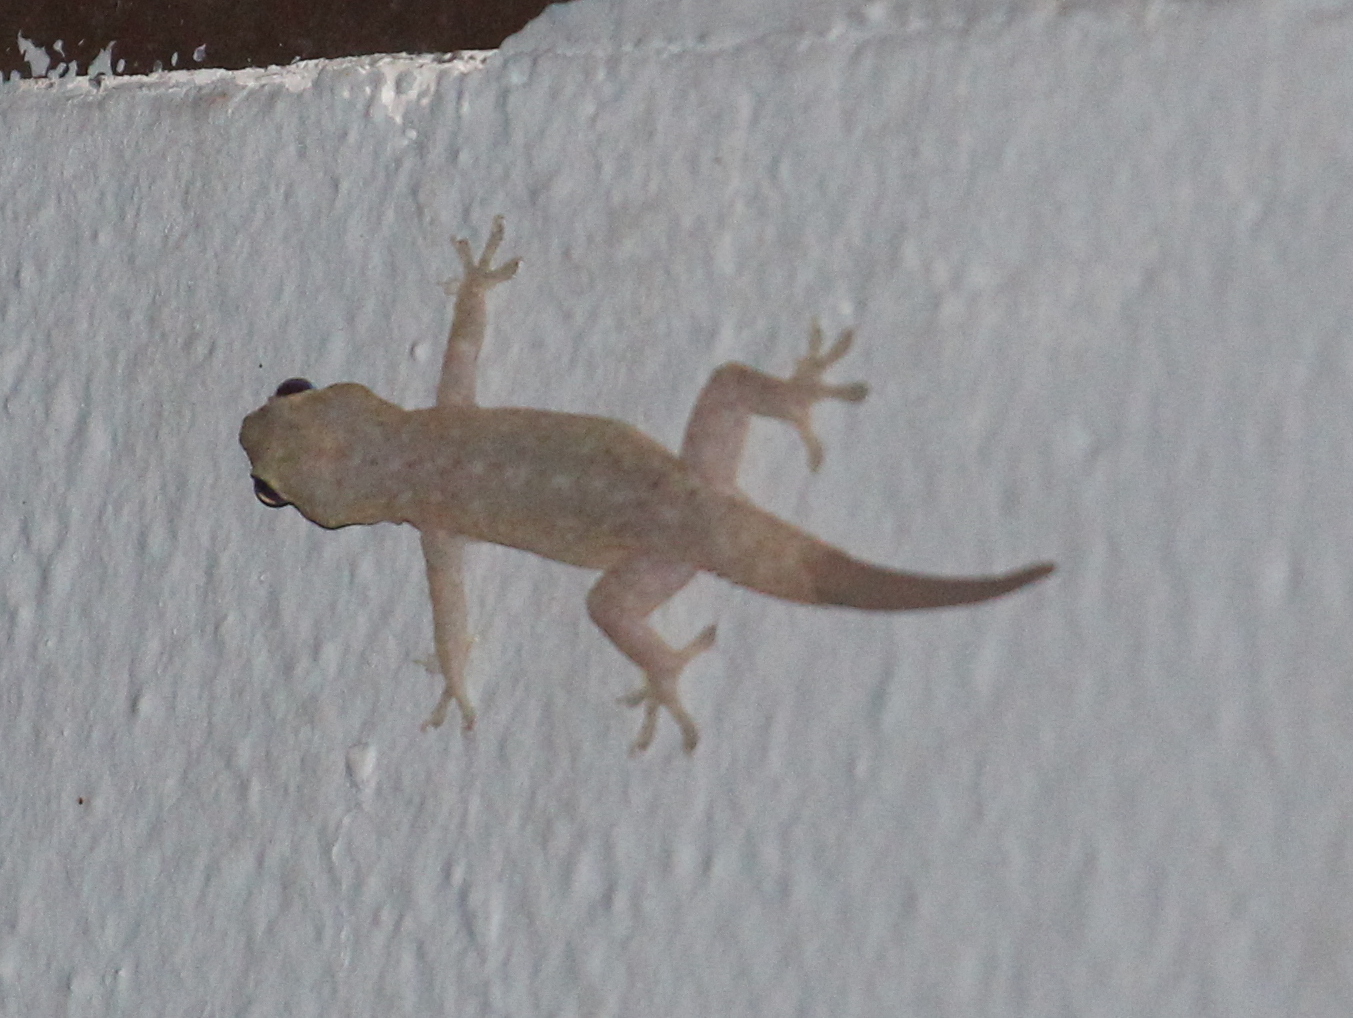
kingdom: Animalia
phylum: Chordata
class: Squamata
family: Gekkonidae
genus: Hemidactylus
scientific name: Hemidactylus frenatus
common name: Common house gecko
